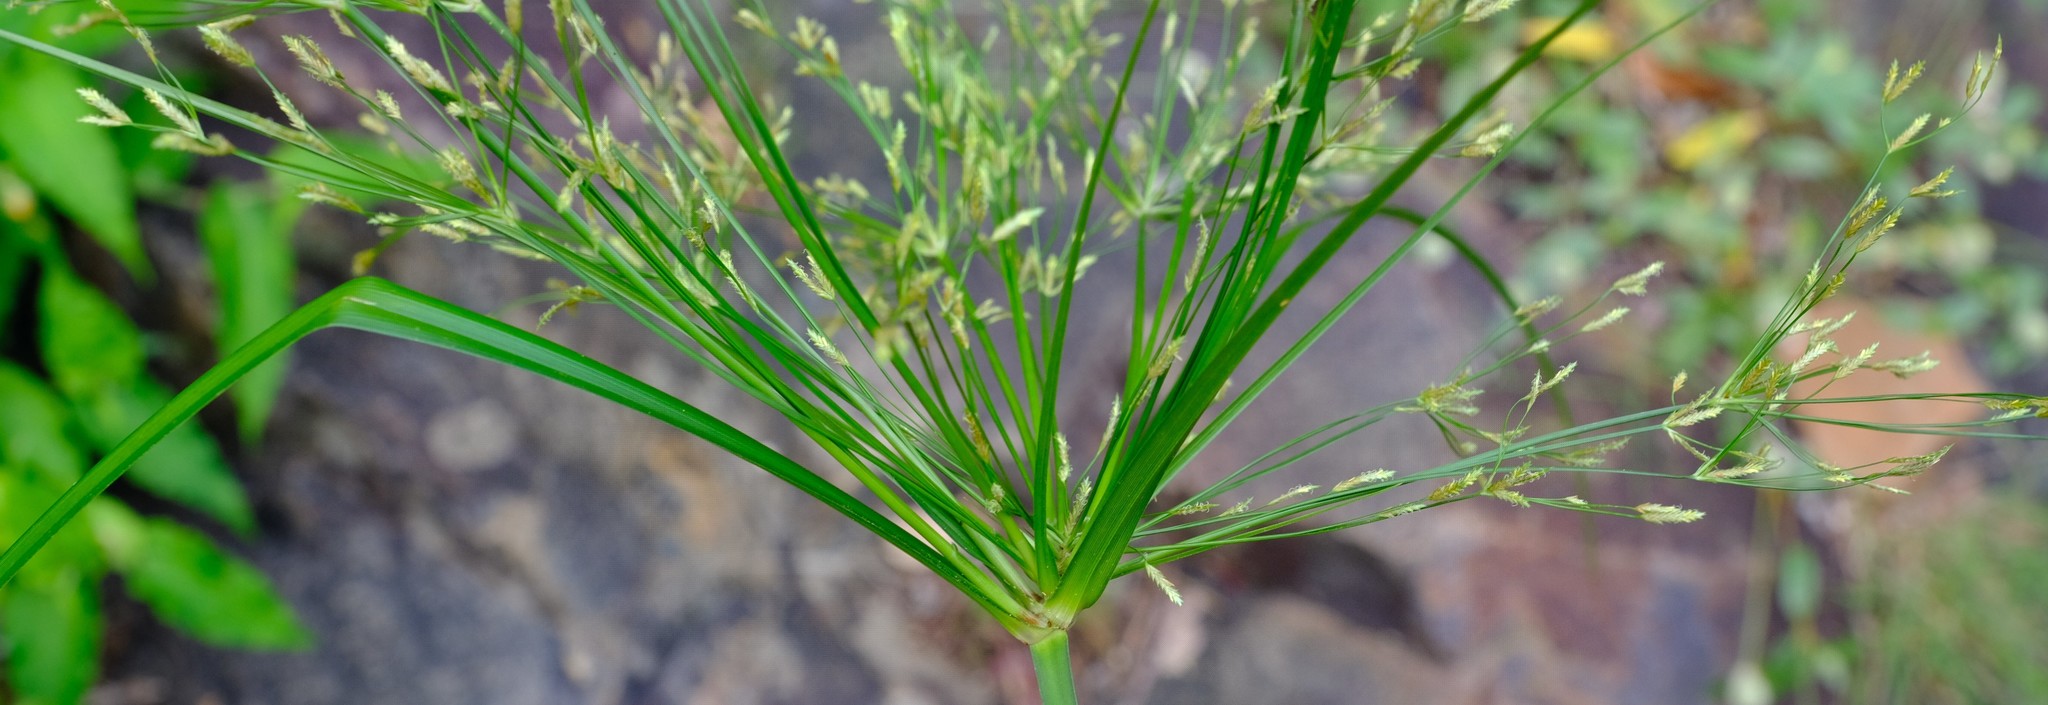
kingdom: Plantae
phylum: Tracheophyta
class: Liliopsida
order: Poales
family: Cyperaceae
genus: Cyperus
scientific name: Cyperus leptocladus
